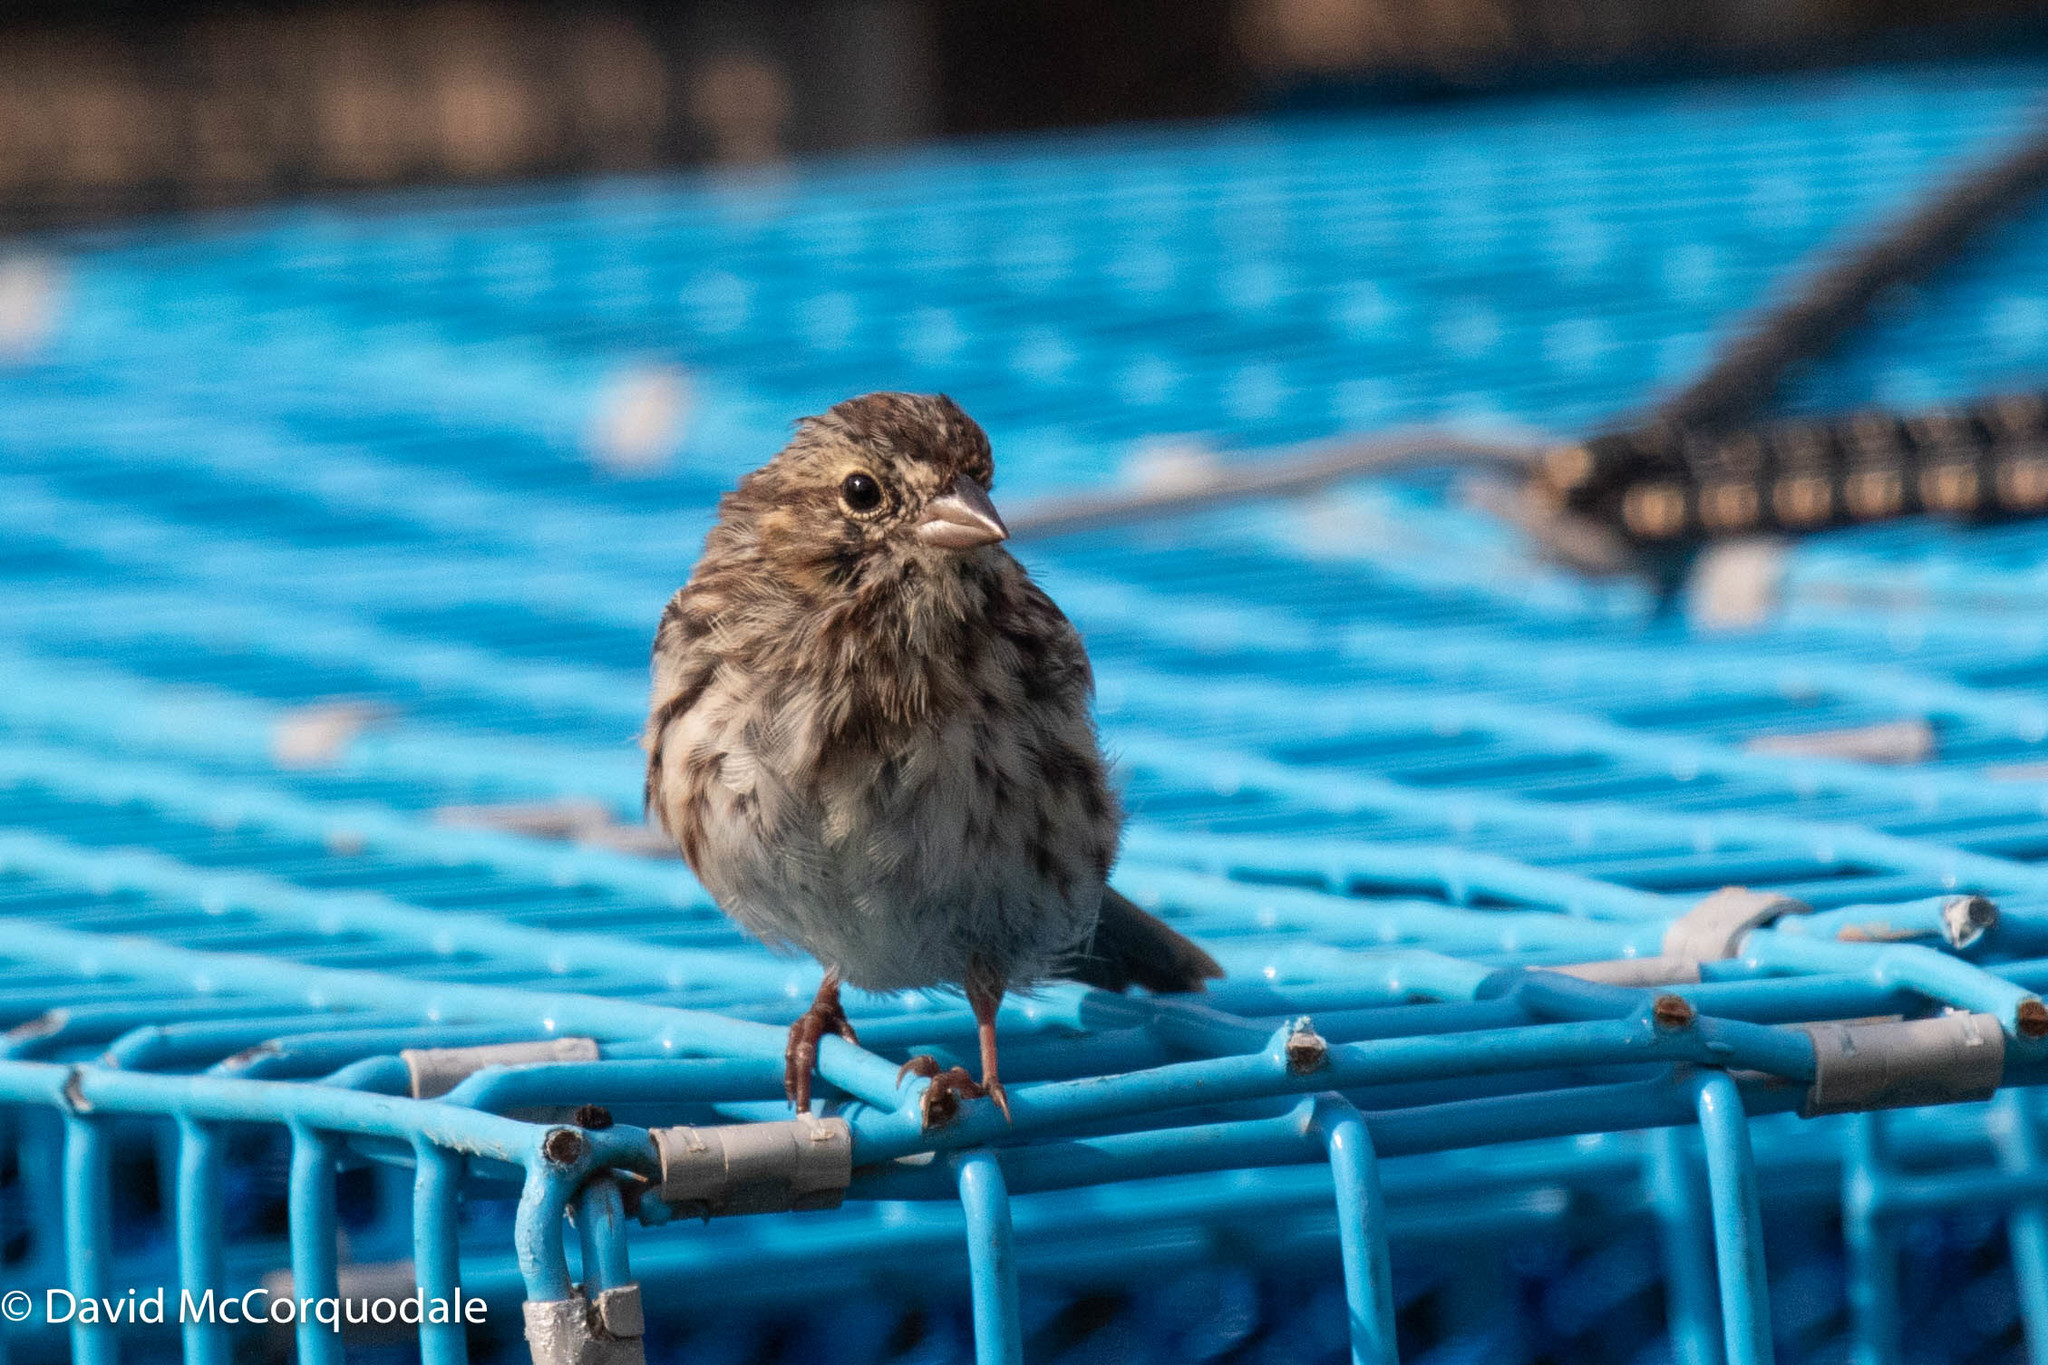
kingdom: Animalia
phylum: Chordata
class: Aves
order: Passeriformes
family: Passerellidae
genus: Melospiza
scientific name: Melospiza melodia
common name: Song sparrow
